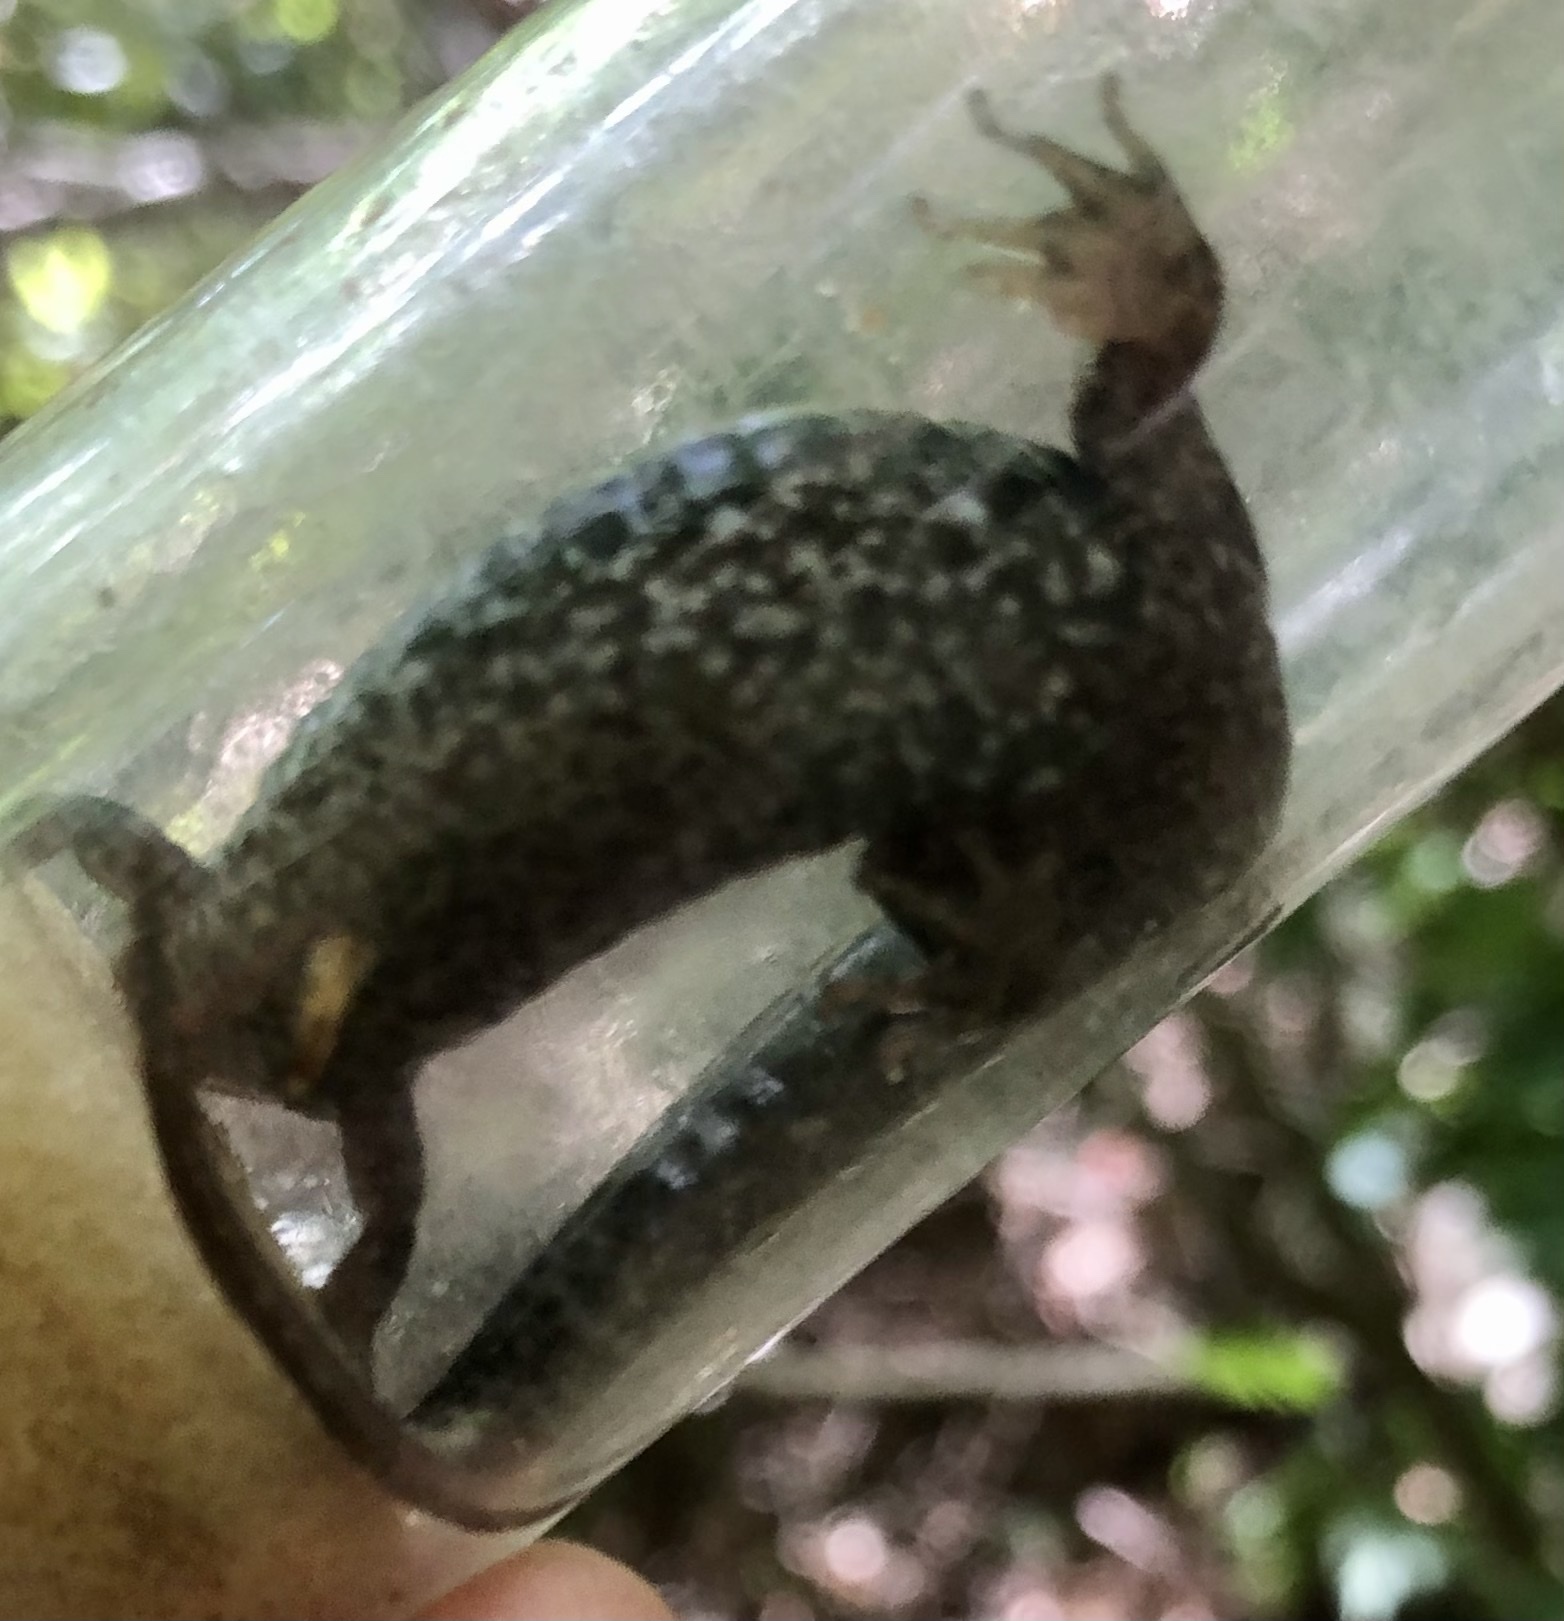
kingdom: Animalia
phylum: Chordata
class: Amphibia
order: Caudata
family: Plethodontidae
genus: Desmognathus
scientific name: Desmognathus
